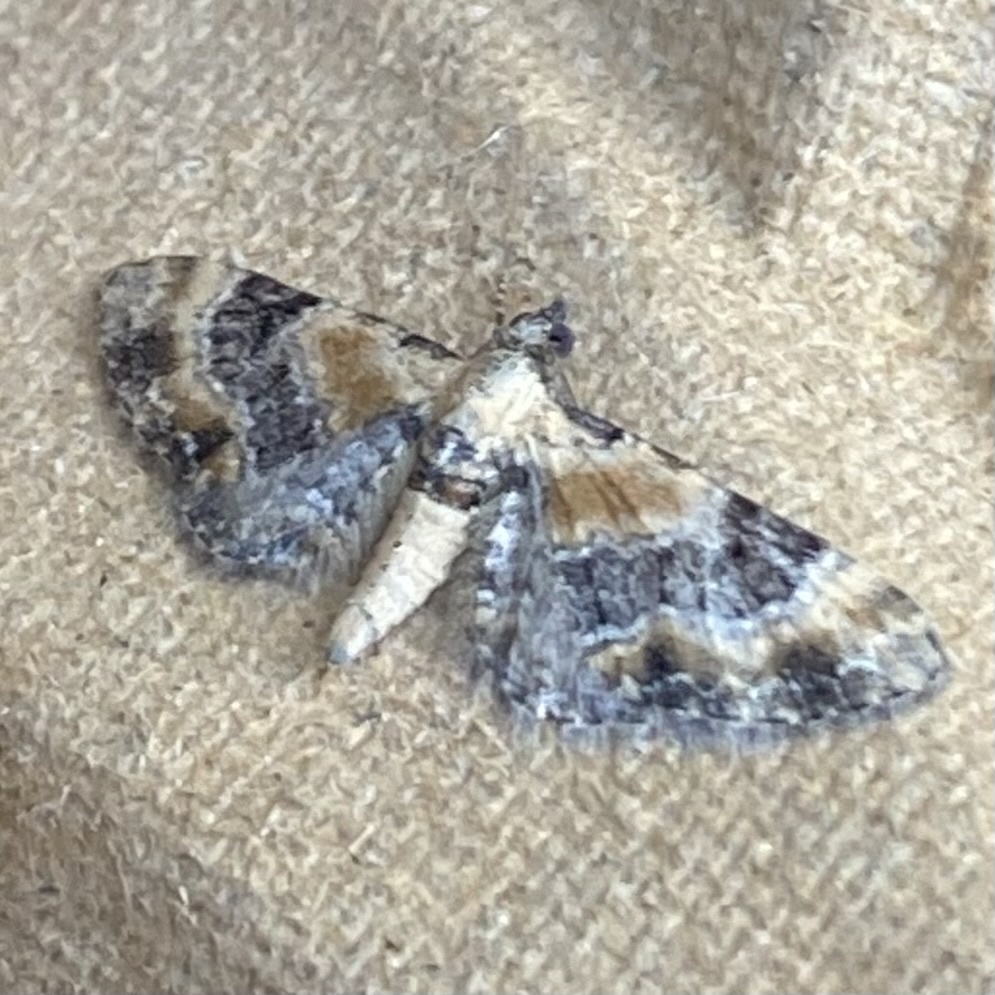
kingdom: Animalia
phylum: Arthropoda
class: Insecta
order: Lepidoptera
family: Geometridae
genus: Eupithecia
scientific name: Eupithecia linariata
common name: Toadflax pug
